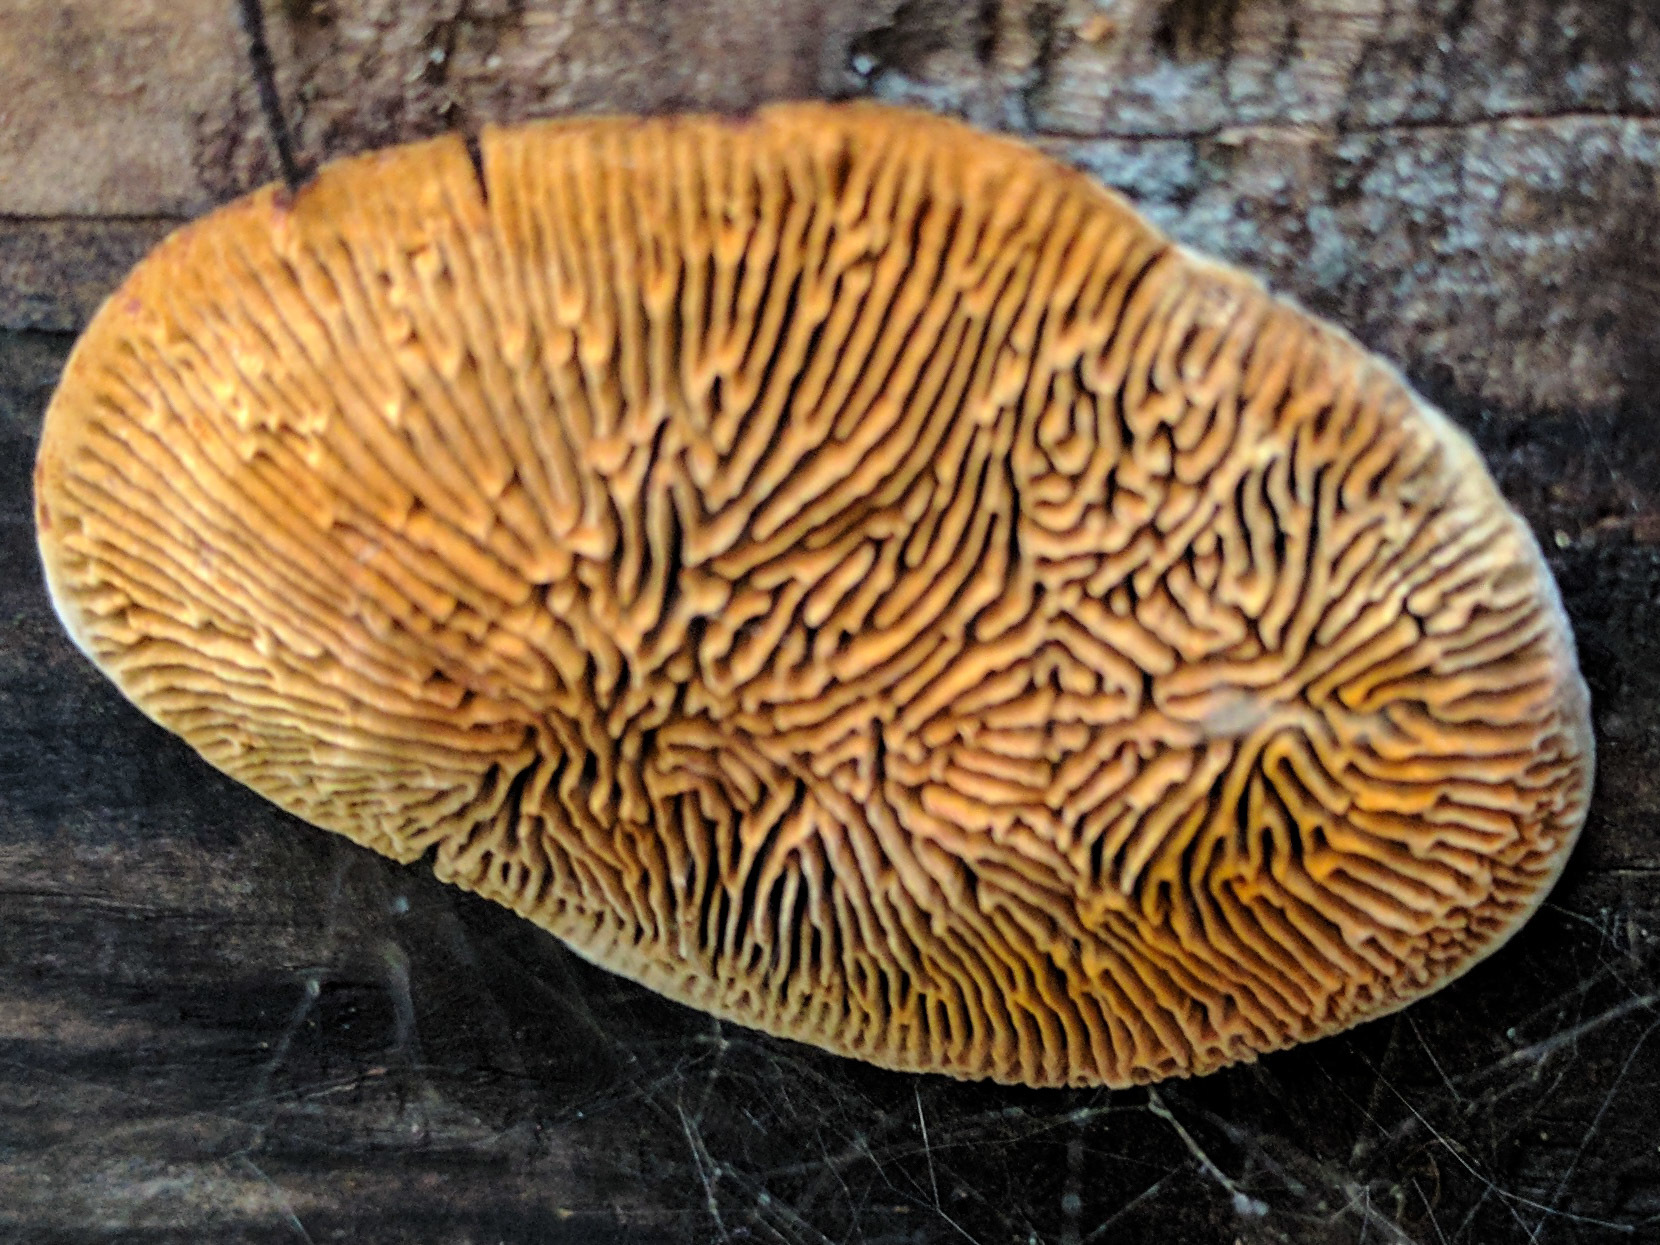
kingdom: Fungi
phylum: Basidiomycota
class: Agaricomycetes
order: Gloeophyllales
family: Gloeophyllaceae
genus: Gloeophyllum
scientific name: Gloeophyllum sepiarium
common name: Conifer mazegill
